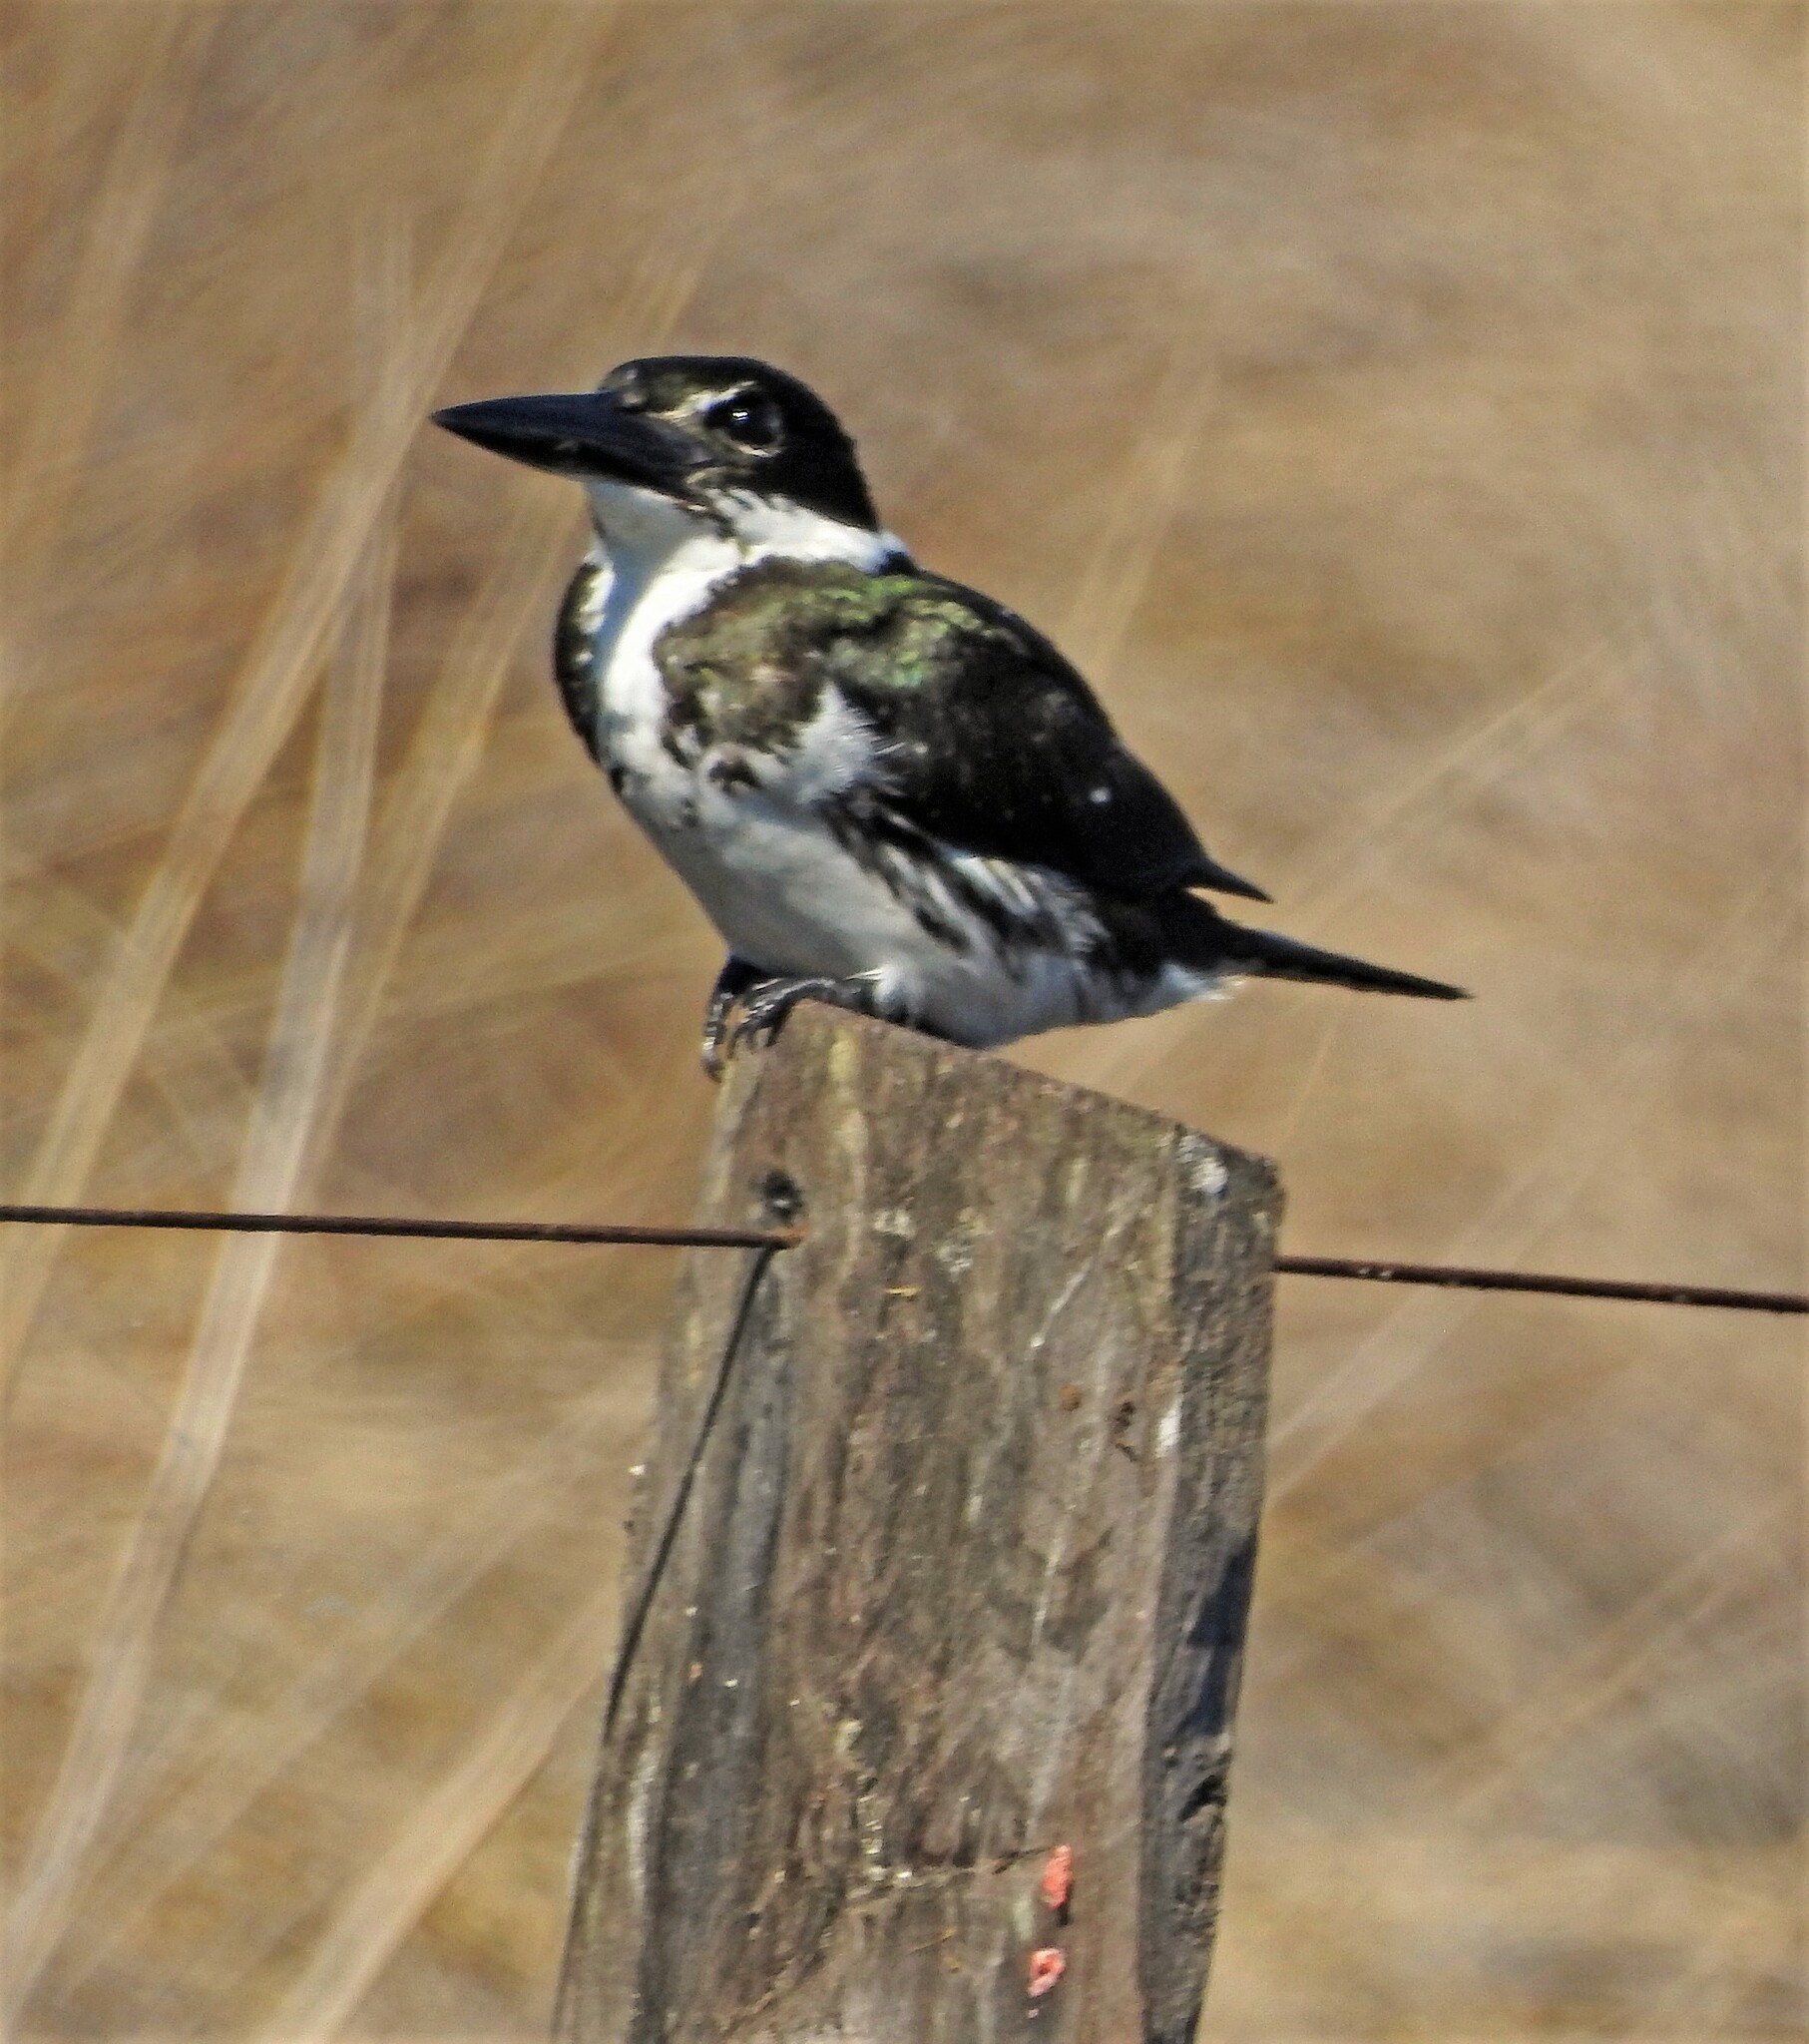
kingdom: Animalia
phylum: Chordata
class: Aves
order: Coraciiformes
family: Alcedinidae
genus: Chloroceryle
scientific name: Chloroceryle amazona
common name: Amazon kingfisher
